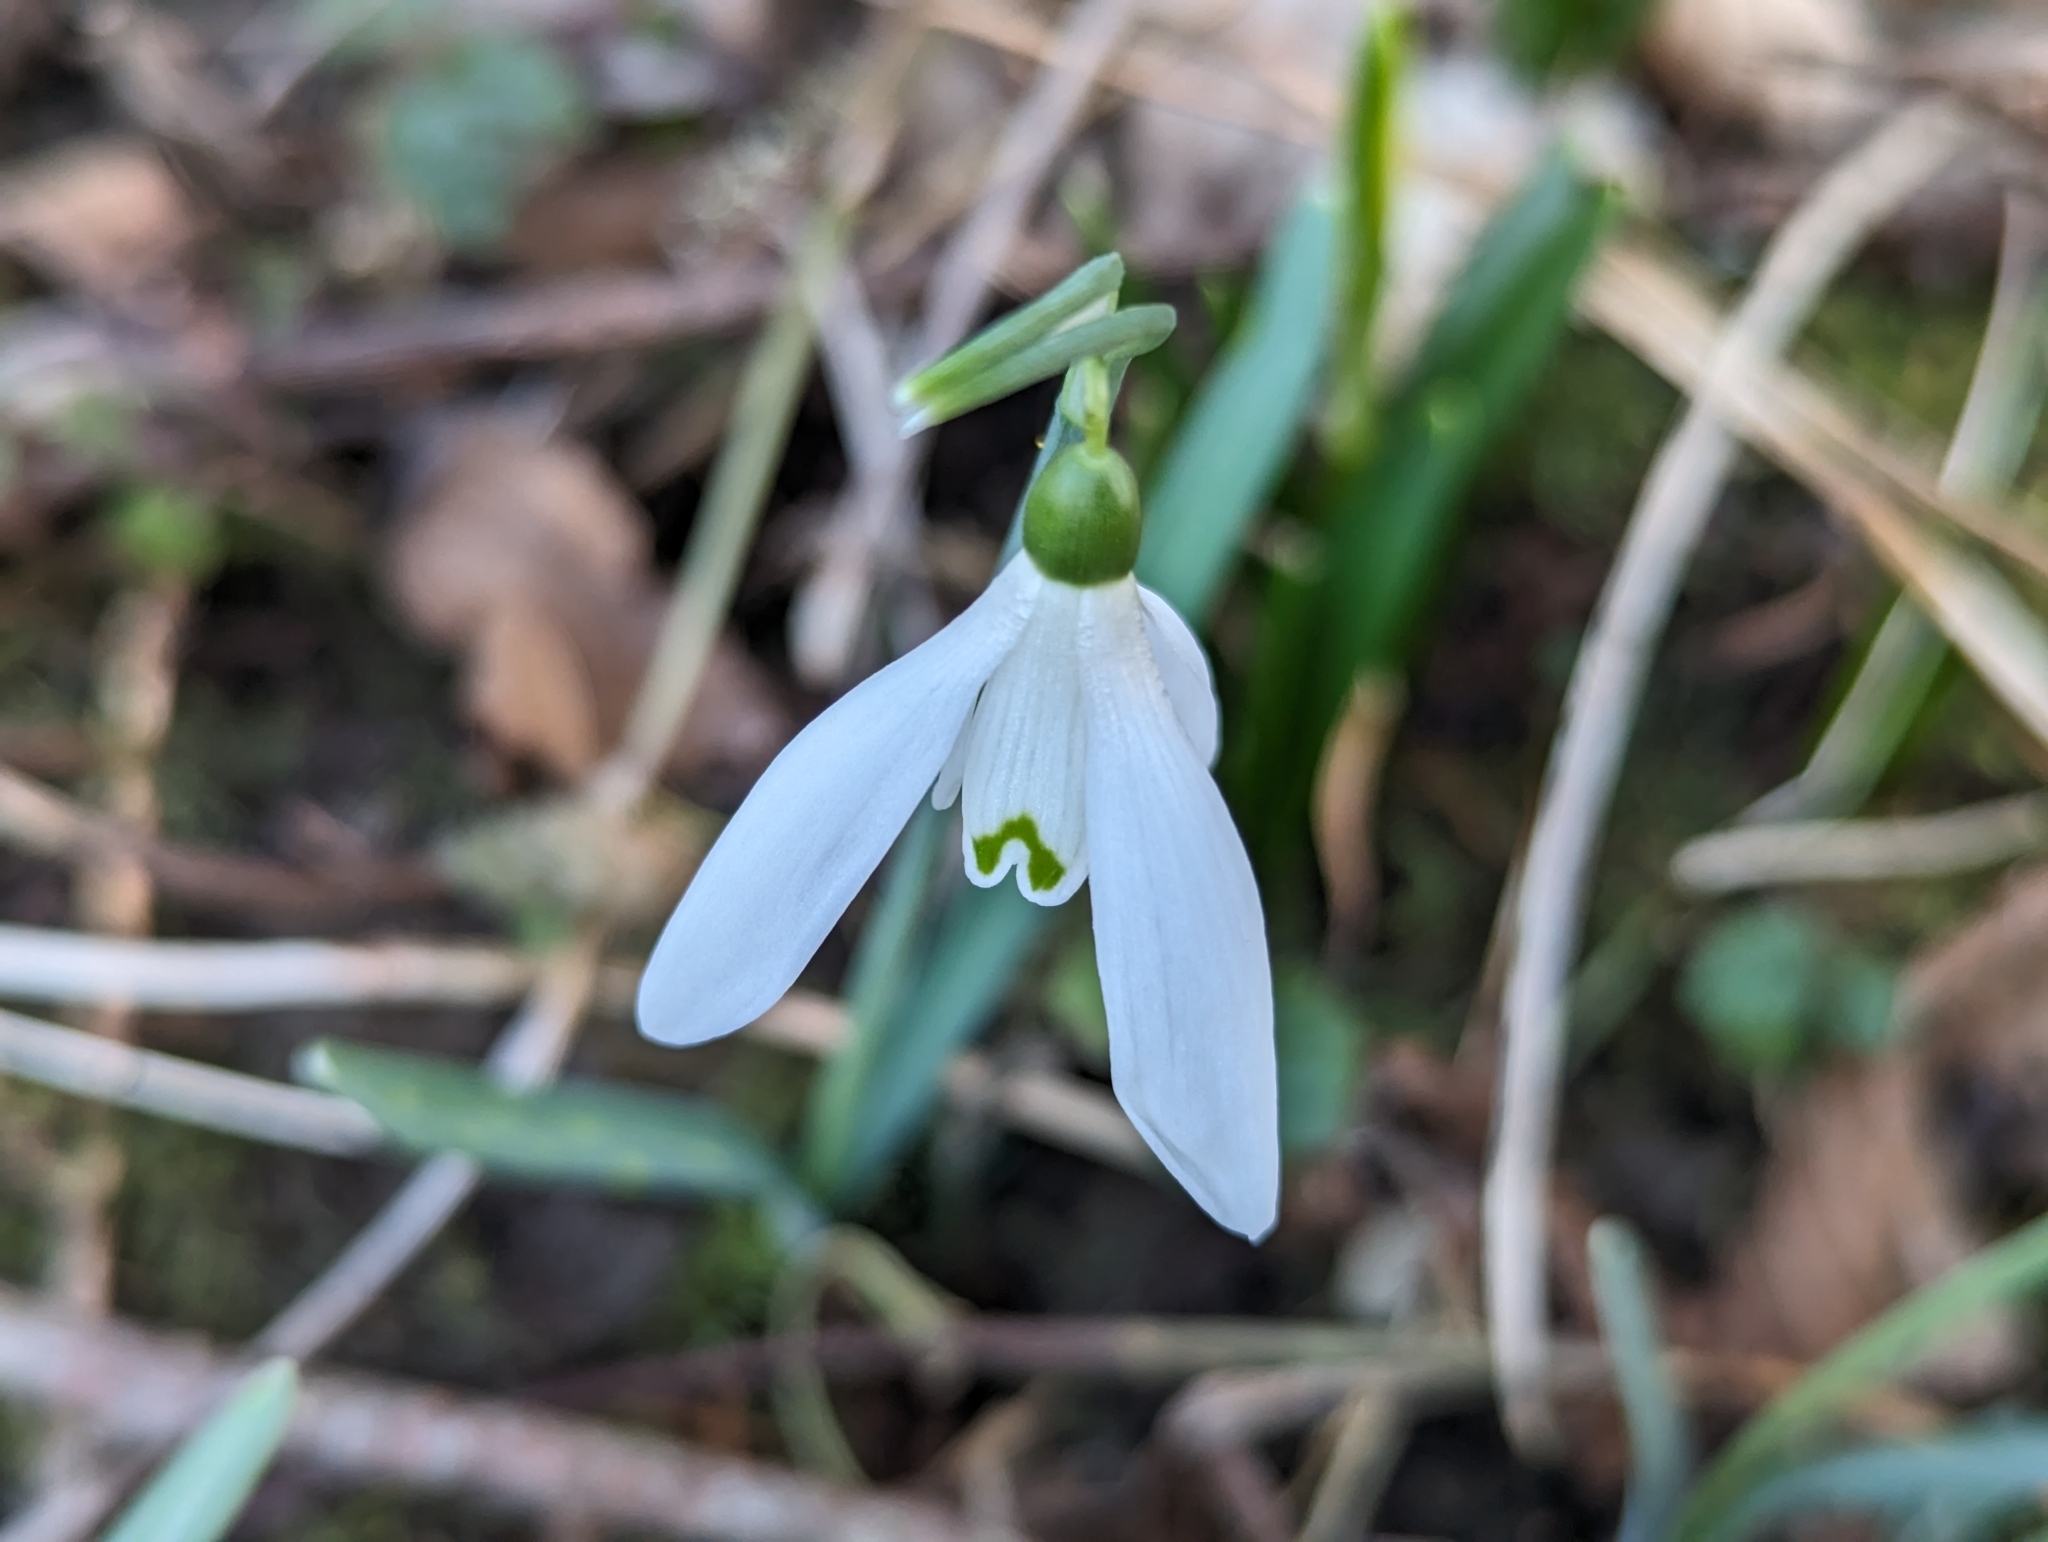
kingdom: Plantae
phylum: Tracheophyta
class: Liliopsida
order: Asparagales
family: Amaryllidaceae
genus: Galanthus
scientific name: Galanthus nivalis
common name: Snowdrop
